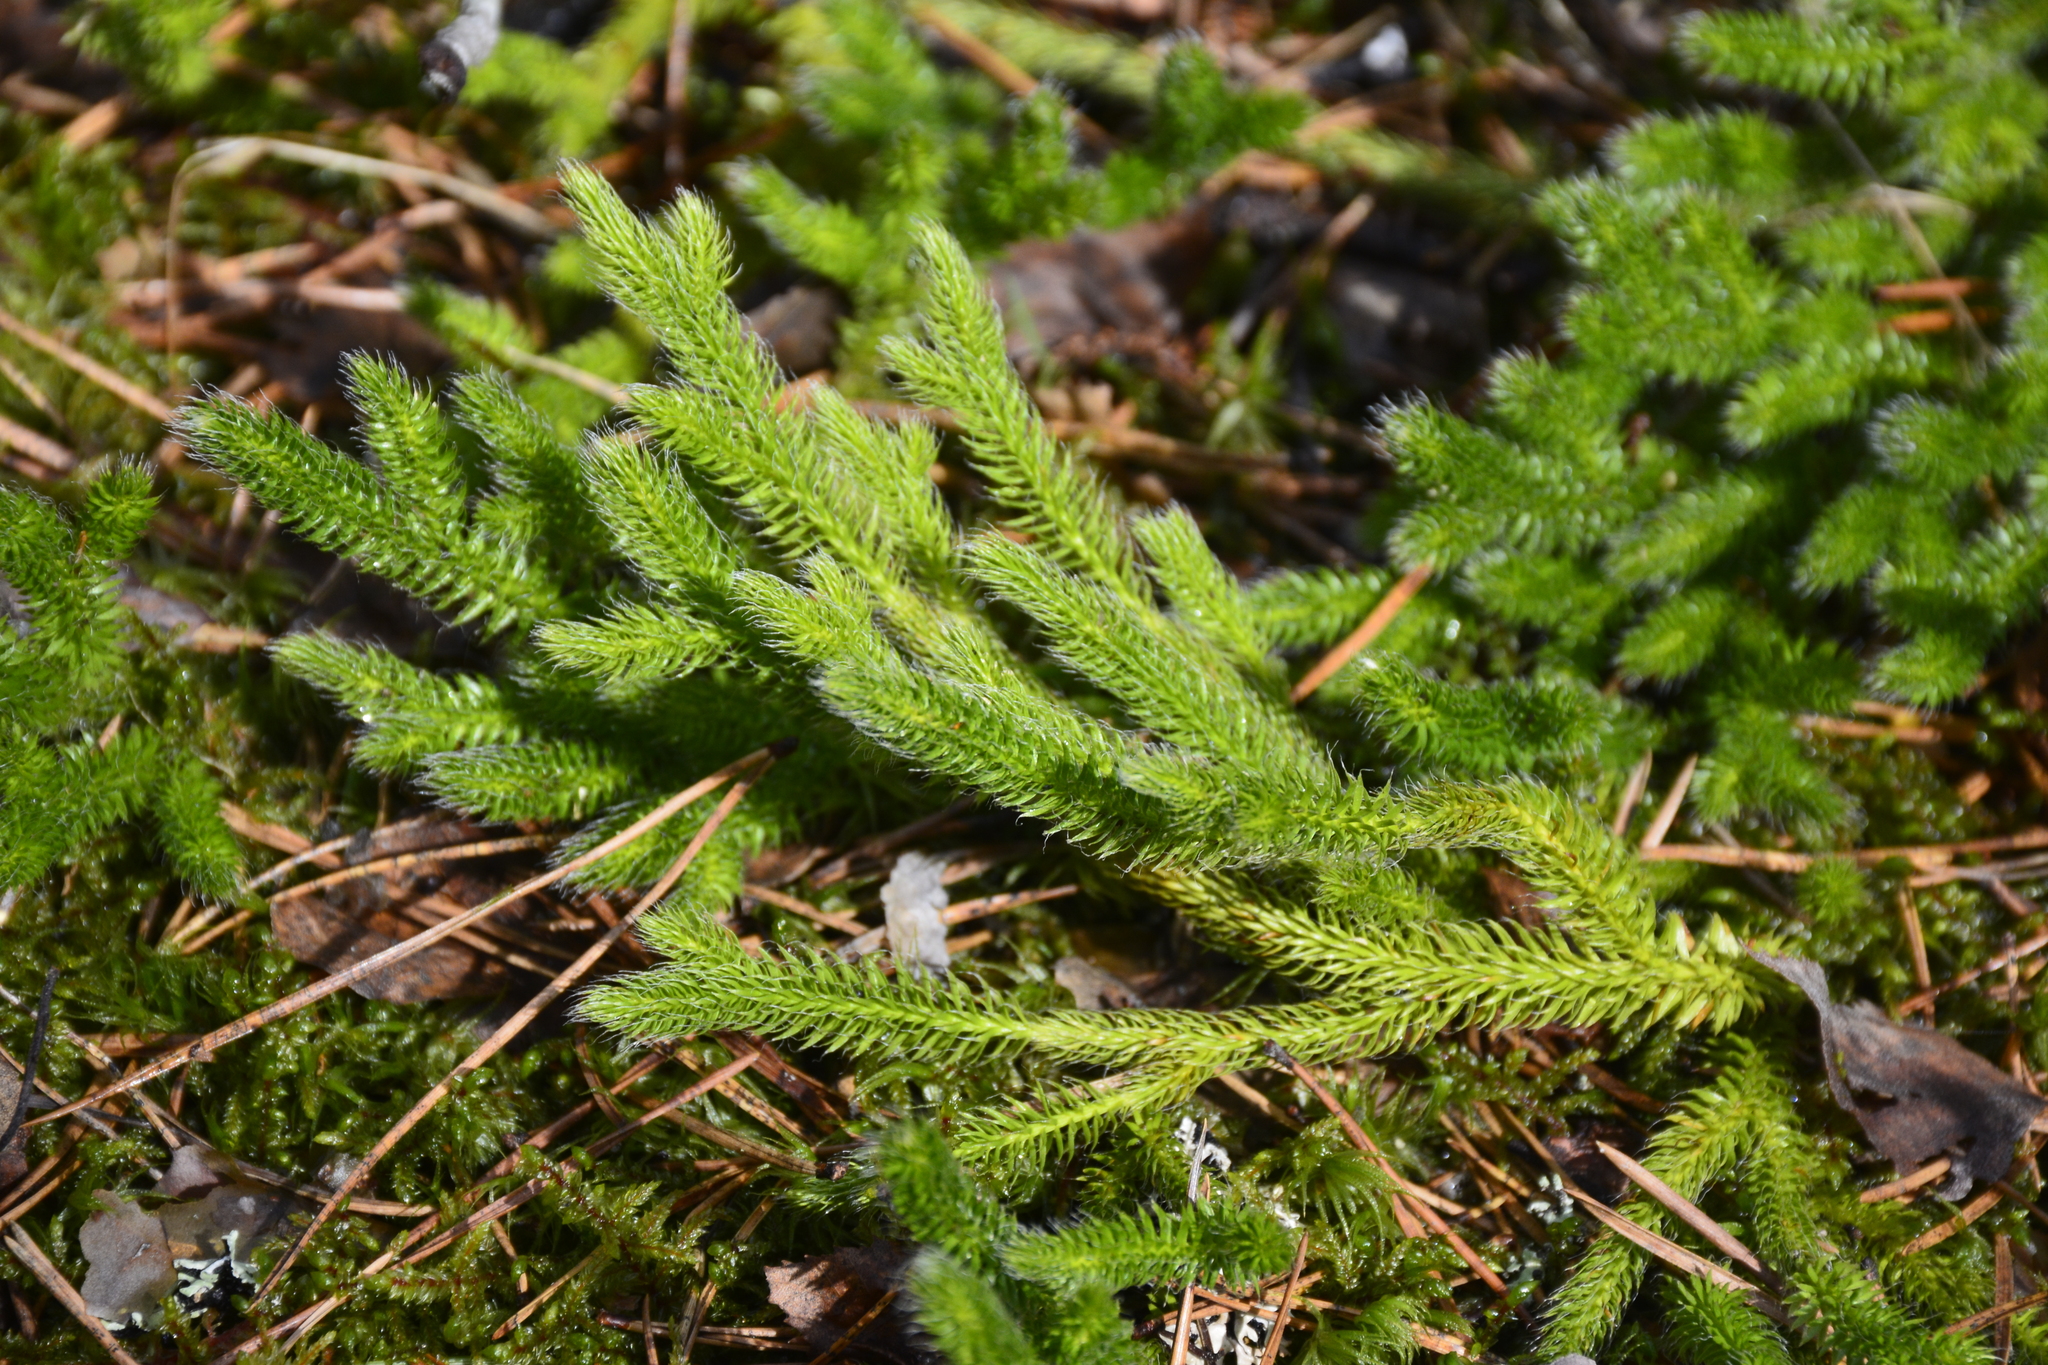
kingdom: Plantae
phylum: Tracheophyta
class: Lycopodiopsida
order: Lycopodiales
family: Lycopodiaceae
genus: Lycopodium
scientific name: Lycopodium clavatum
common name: Stag's-horn clubmoss
